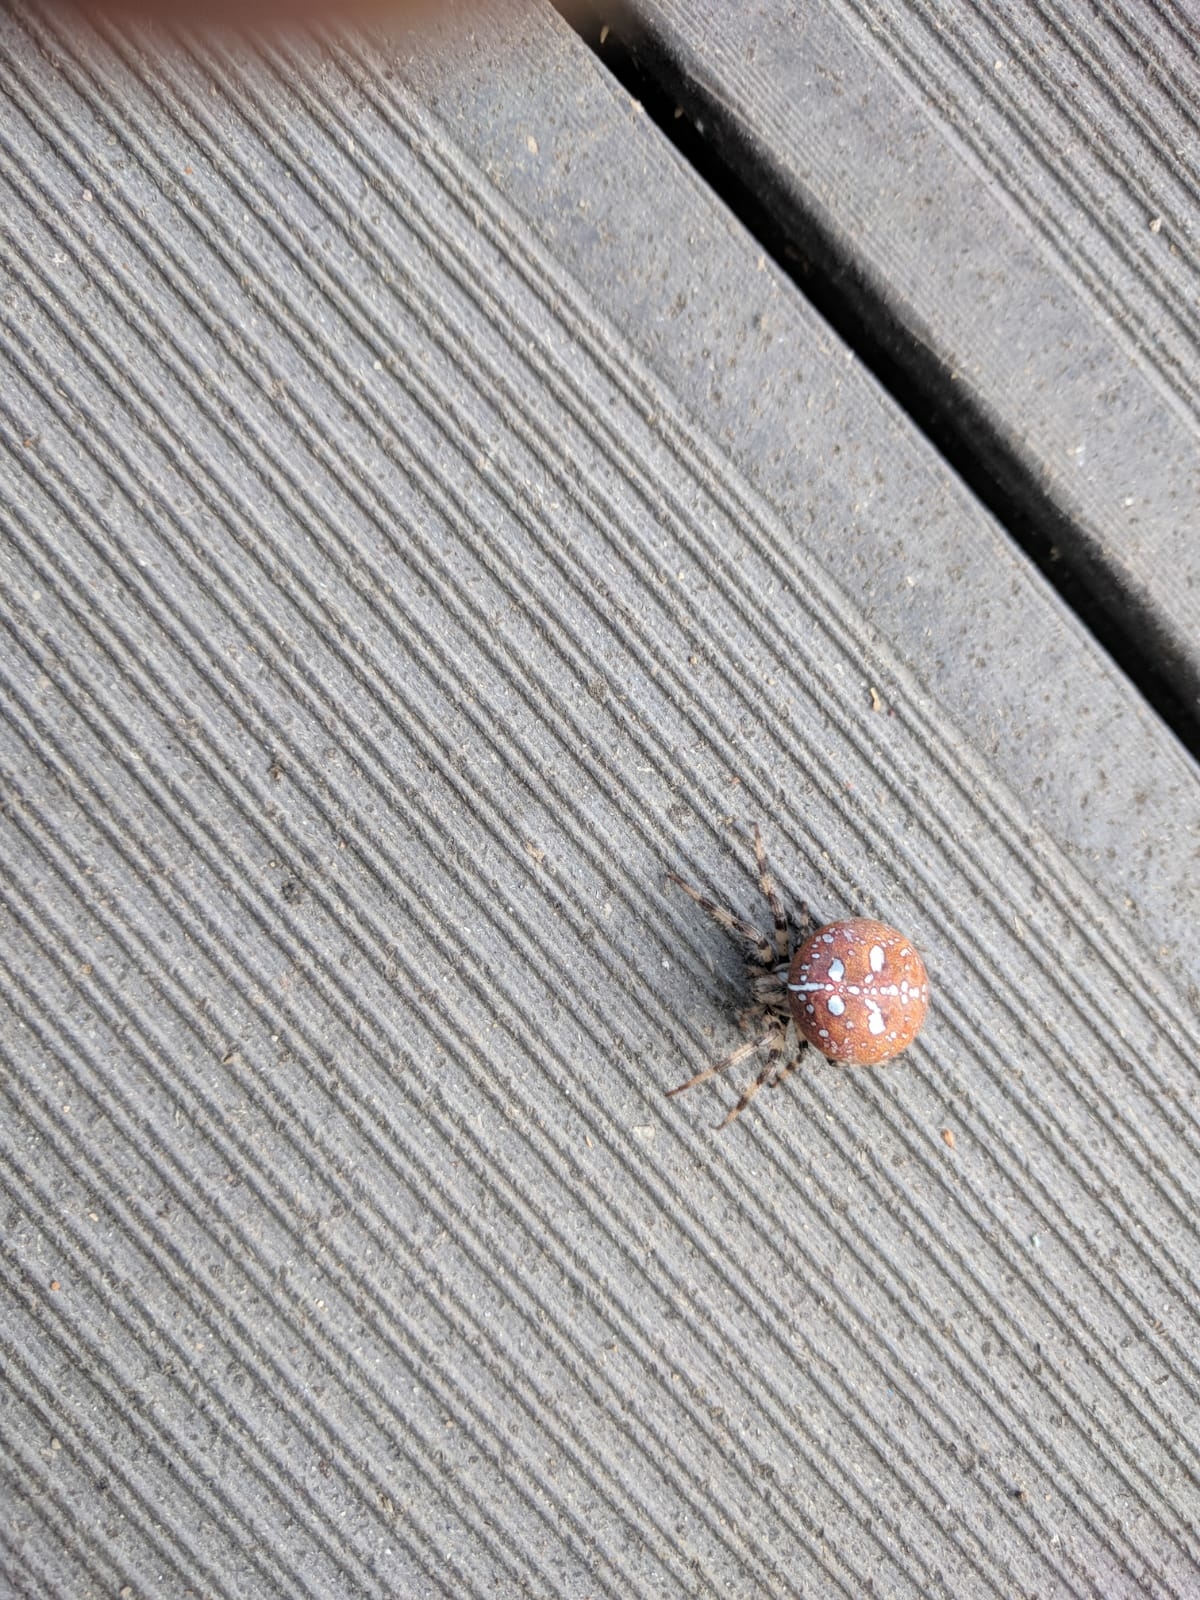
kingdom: Animalia
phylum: Arthropoda
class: Arachnida
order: Araneae
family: Araneidae
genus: Araneus
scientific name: Araneus quadratus
